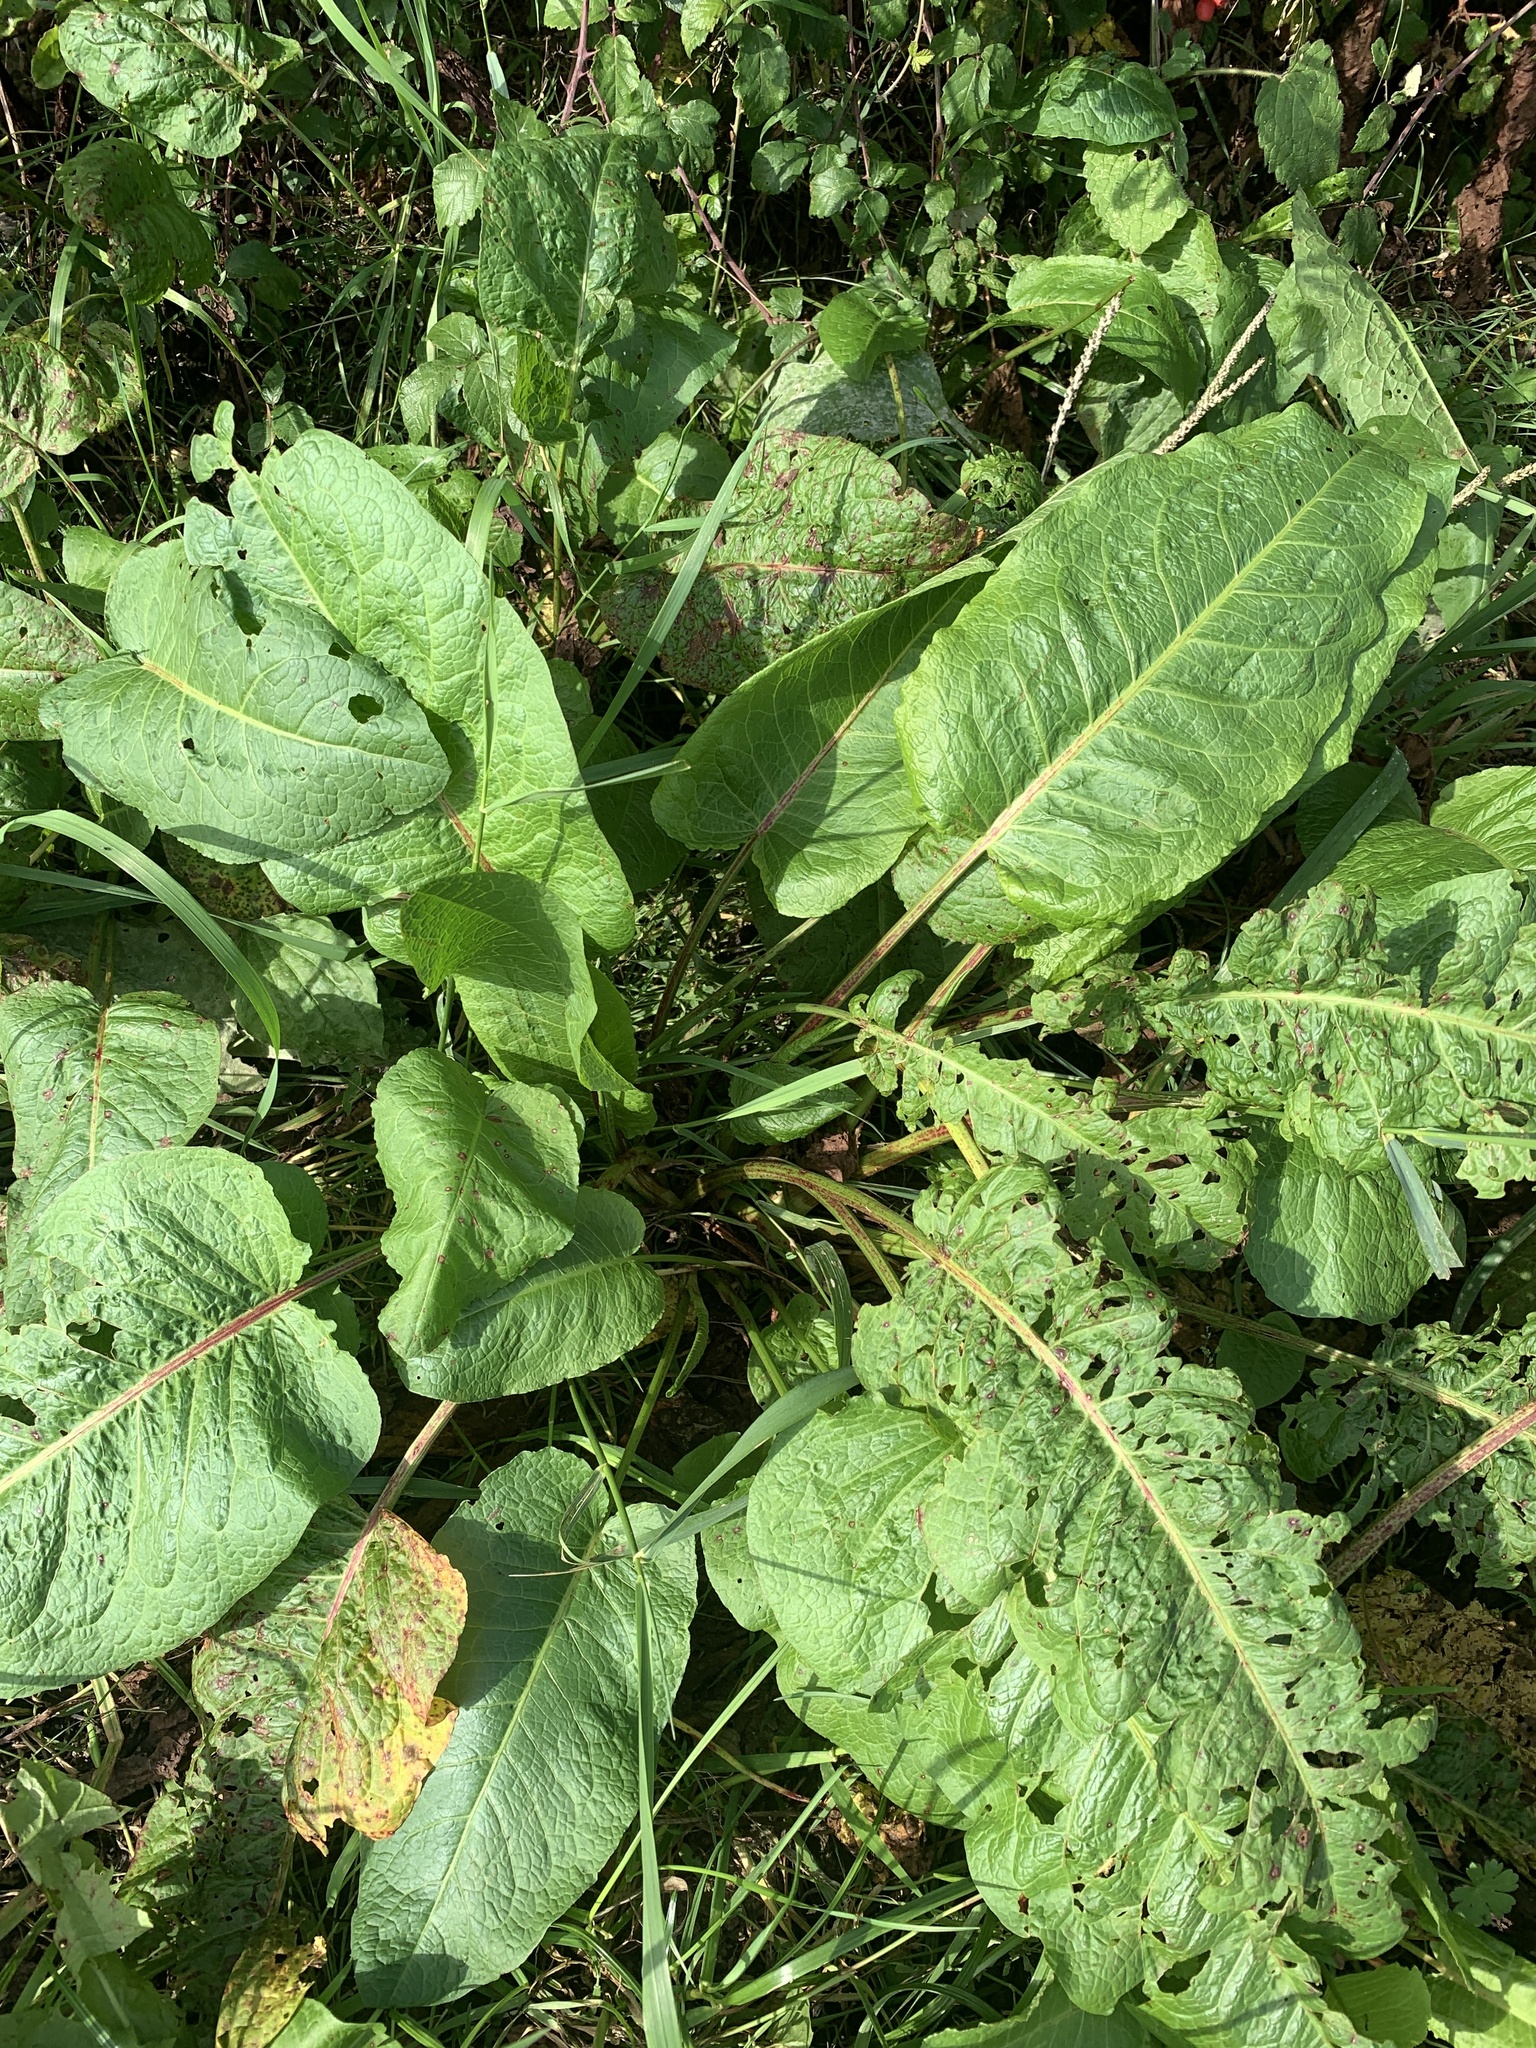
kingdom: Plantae
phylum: Tracheophyta
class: Magnoliopsida
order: Caryophyllales
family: Polygonaceae
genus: Rumex
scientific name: Rumex obtusifolius
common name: Bitter dock
